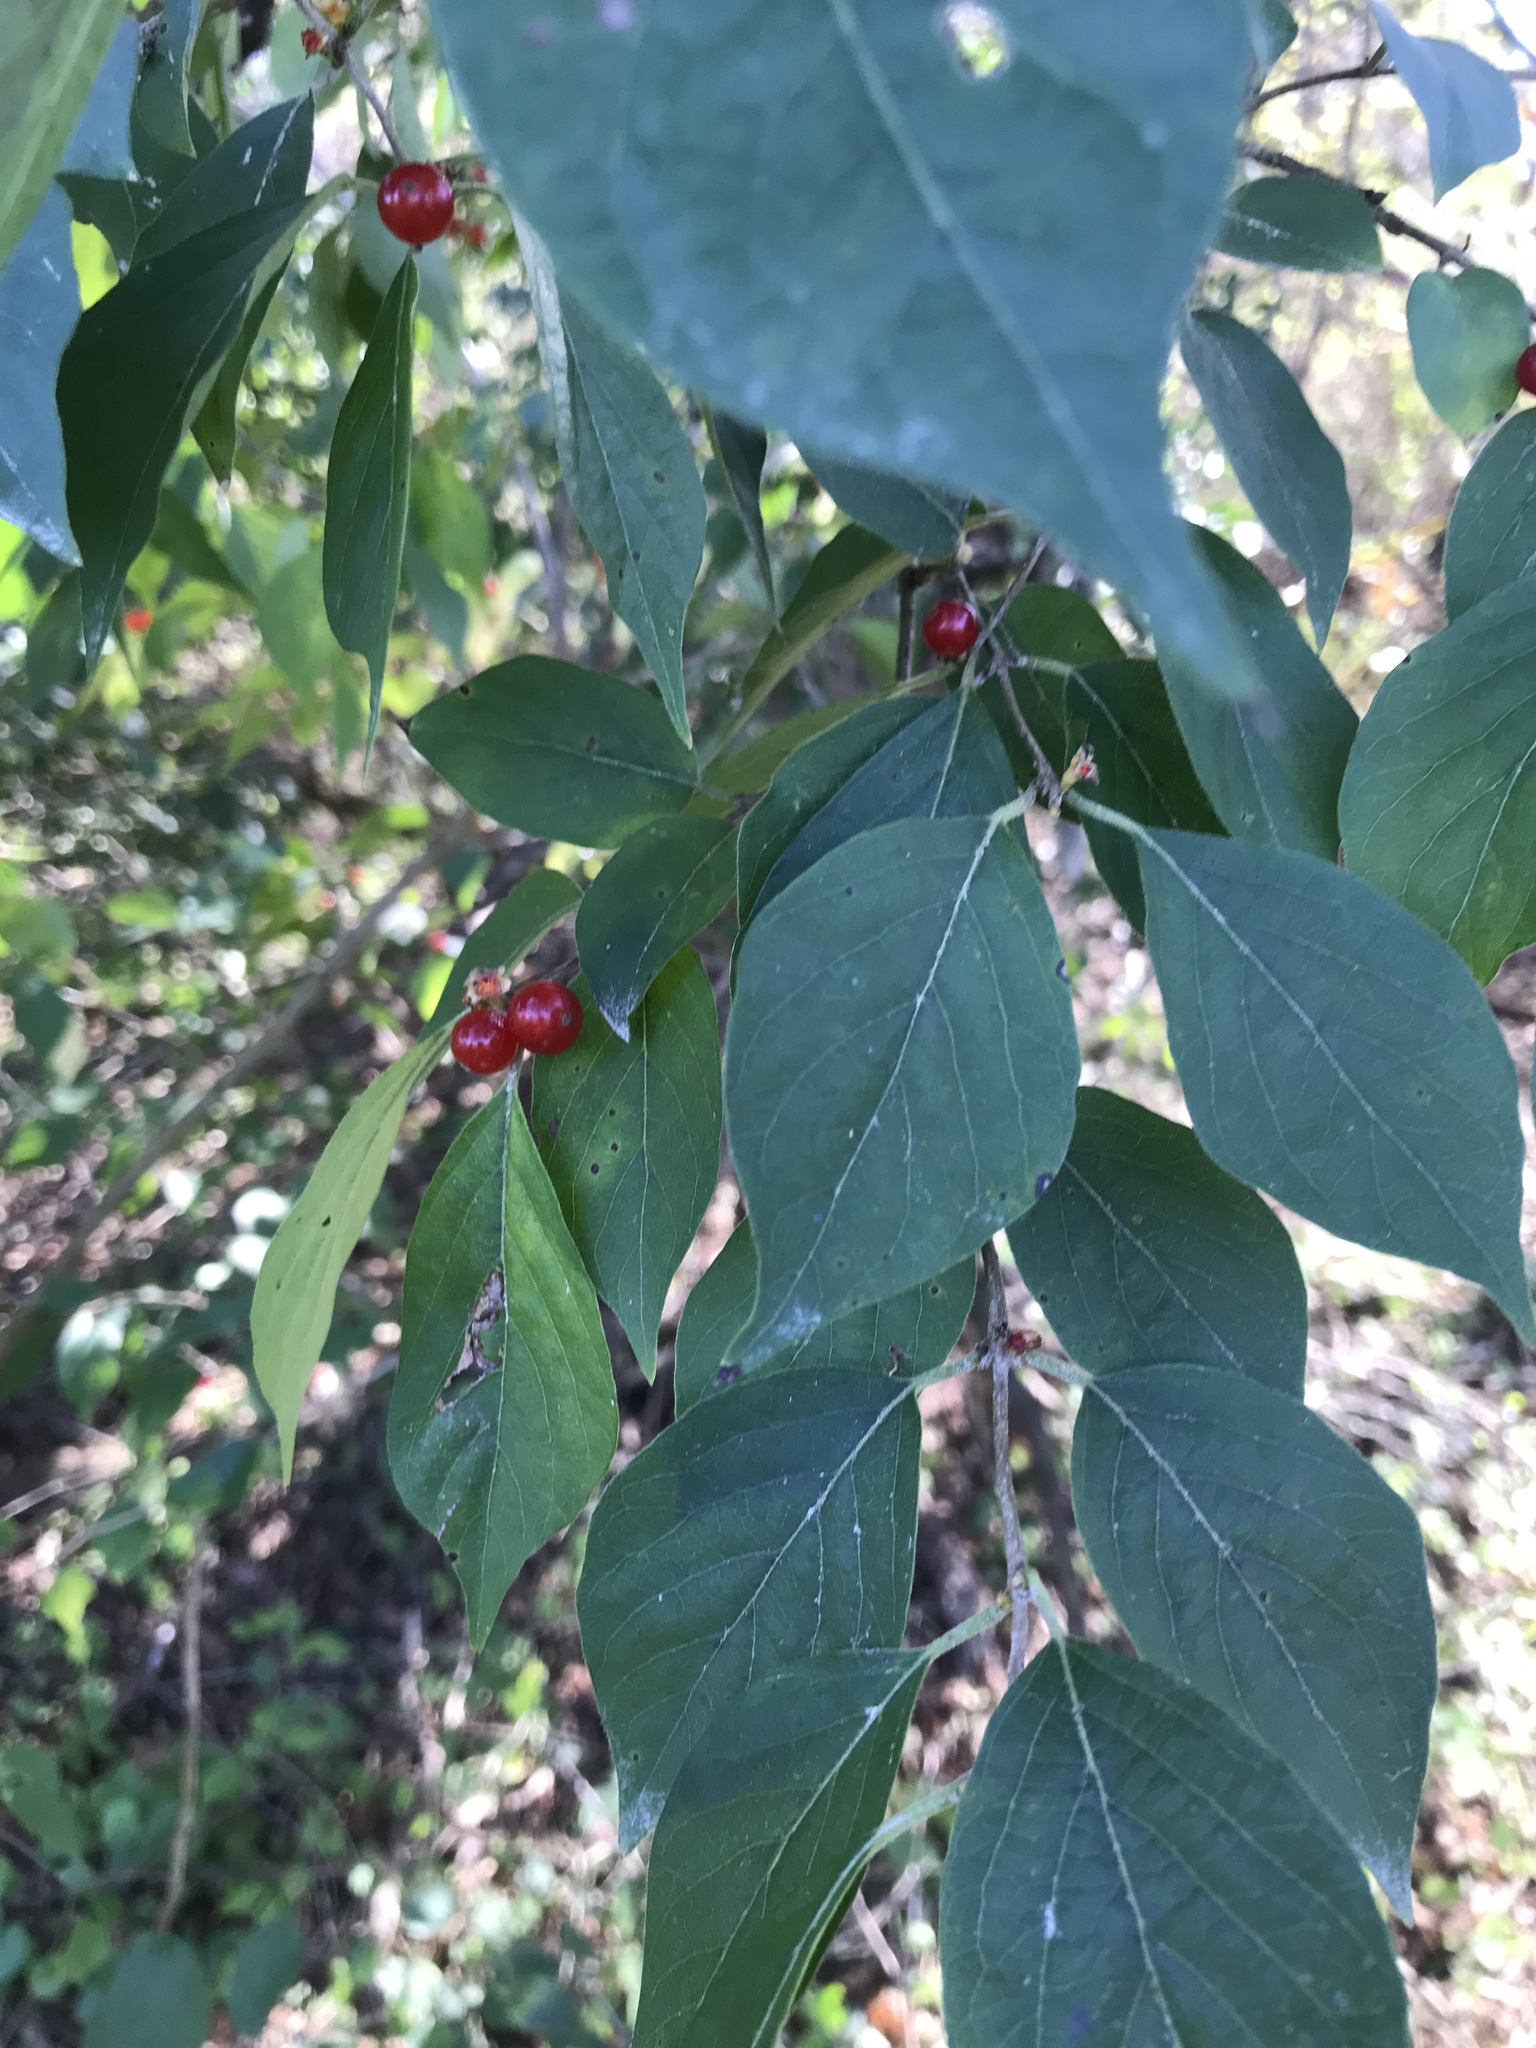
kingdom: Plantae
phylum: Tracheophyta
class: Magnoliopsida
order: Dipsacales
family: Caprifoliaceae
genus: Lonicera
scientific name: Lonicera maackii
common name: Amur honeysuckle
